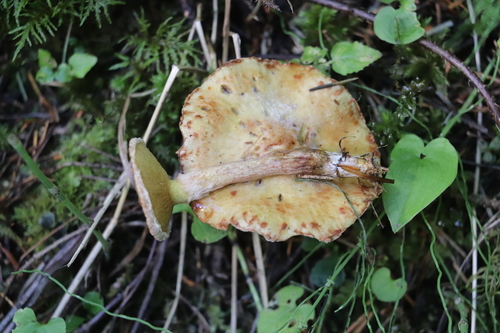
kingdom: Fungi
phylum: Basidiomycota
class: Agaricomycetes
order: Boletales
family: Suillaceae
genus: Suillus
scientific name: Suillus americanus
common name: Chicken fat mushroom
